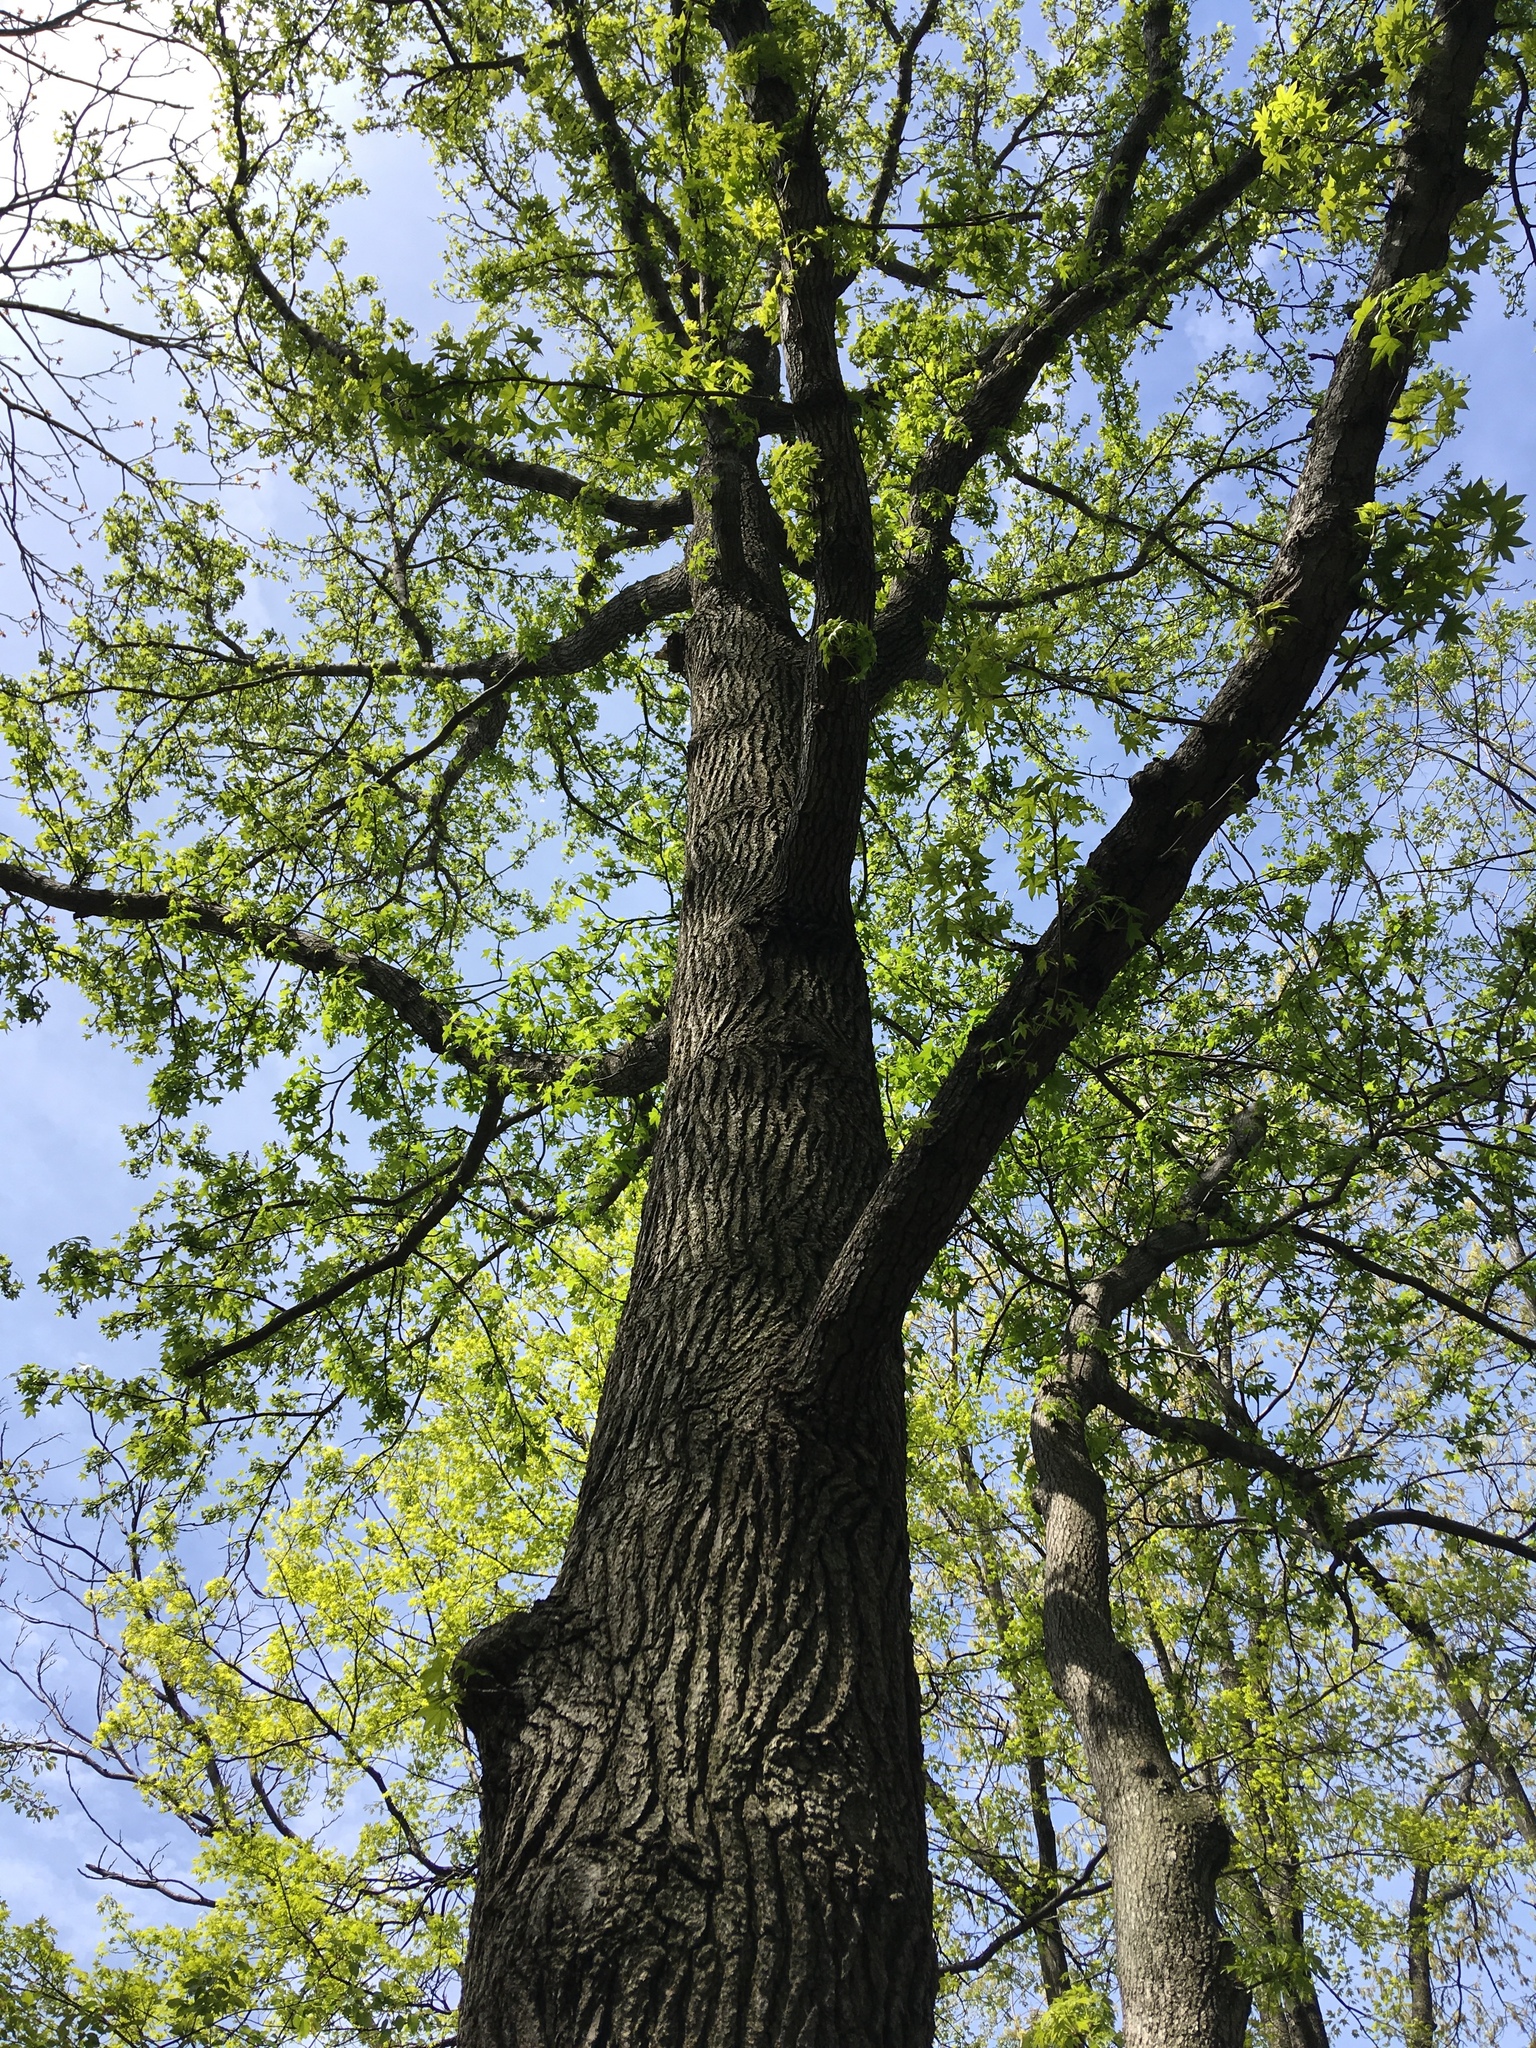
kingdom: Plantae
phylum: Tracheophyta
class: Magnoliopsida
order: Saxifragales
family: Altingiaceae
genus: Liquidambar
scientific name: Liquidambar styraciflua
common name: Sweet gum
